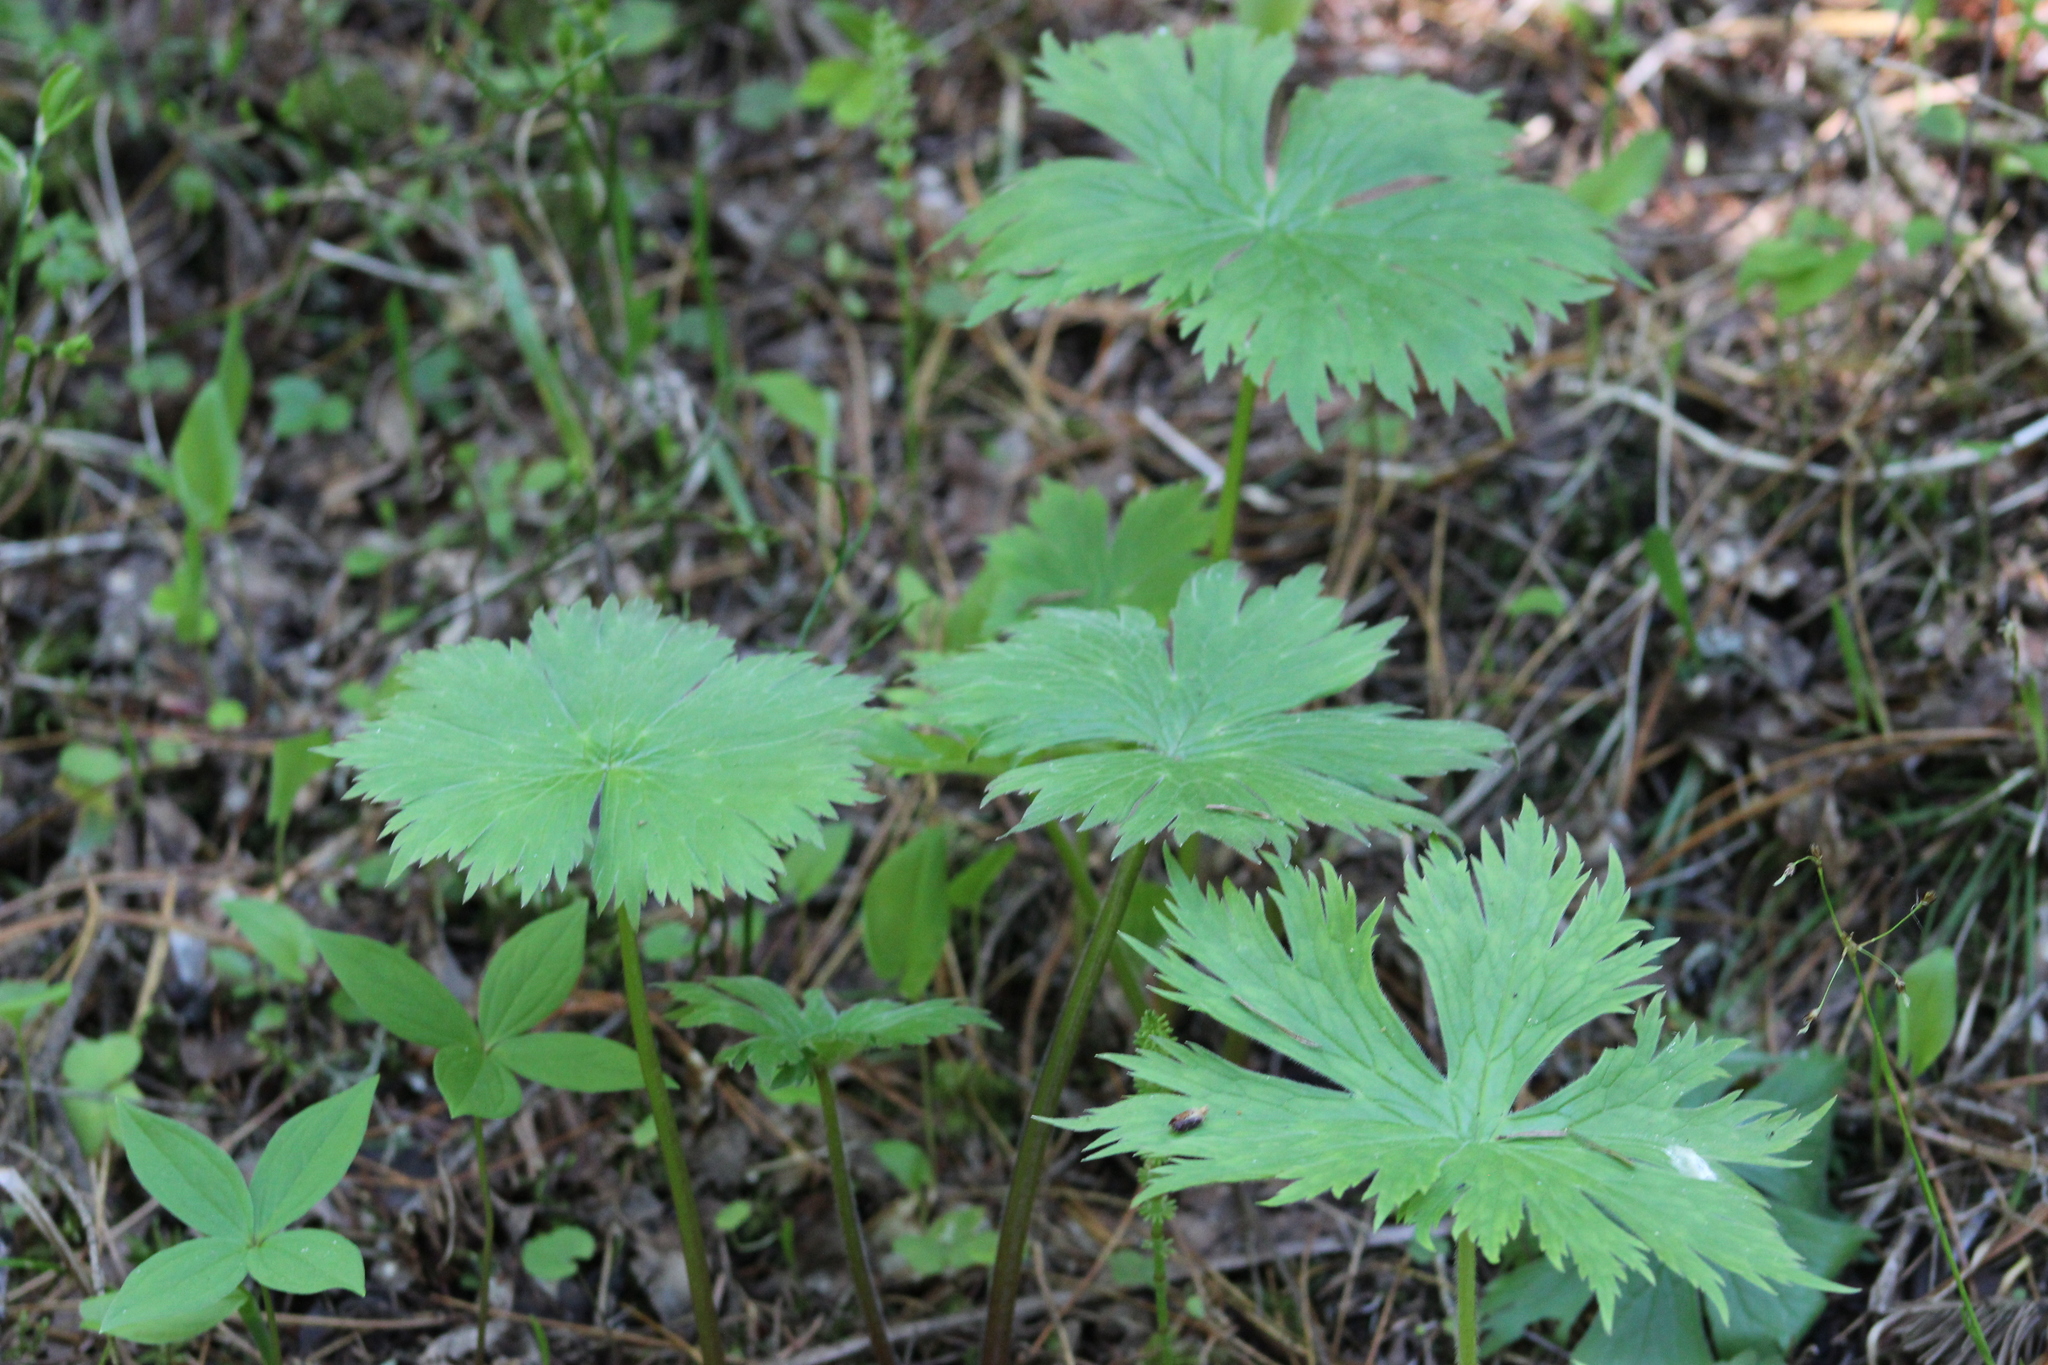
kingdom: Plantae
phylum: Tracheophyta
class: Magnoliopsida
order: Ranunculales
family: Ranunculaceae
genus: Aconitum
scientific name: Aconitum septentrionale
